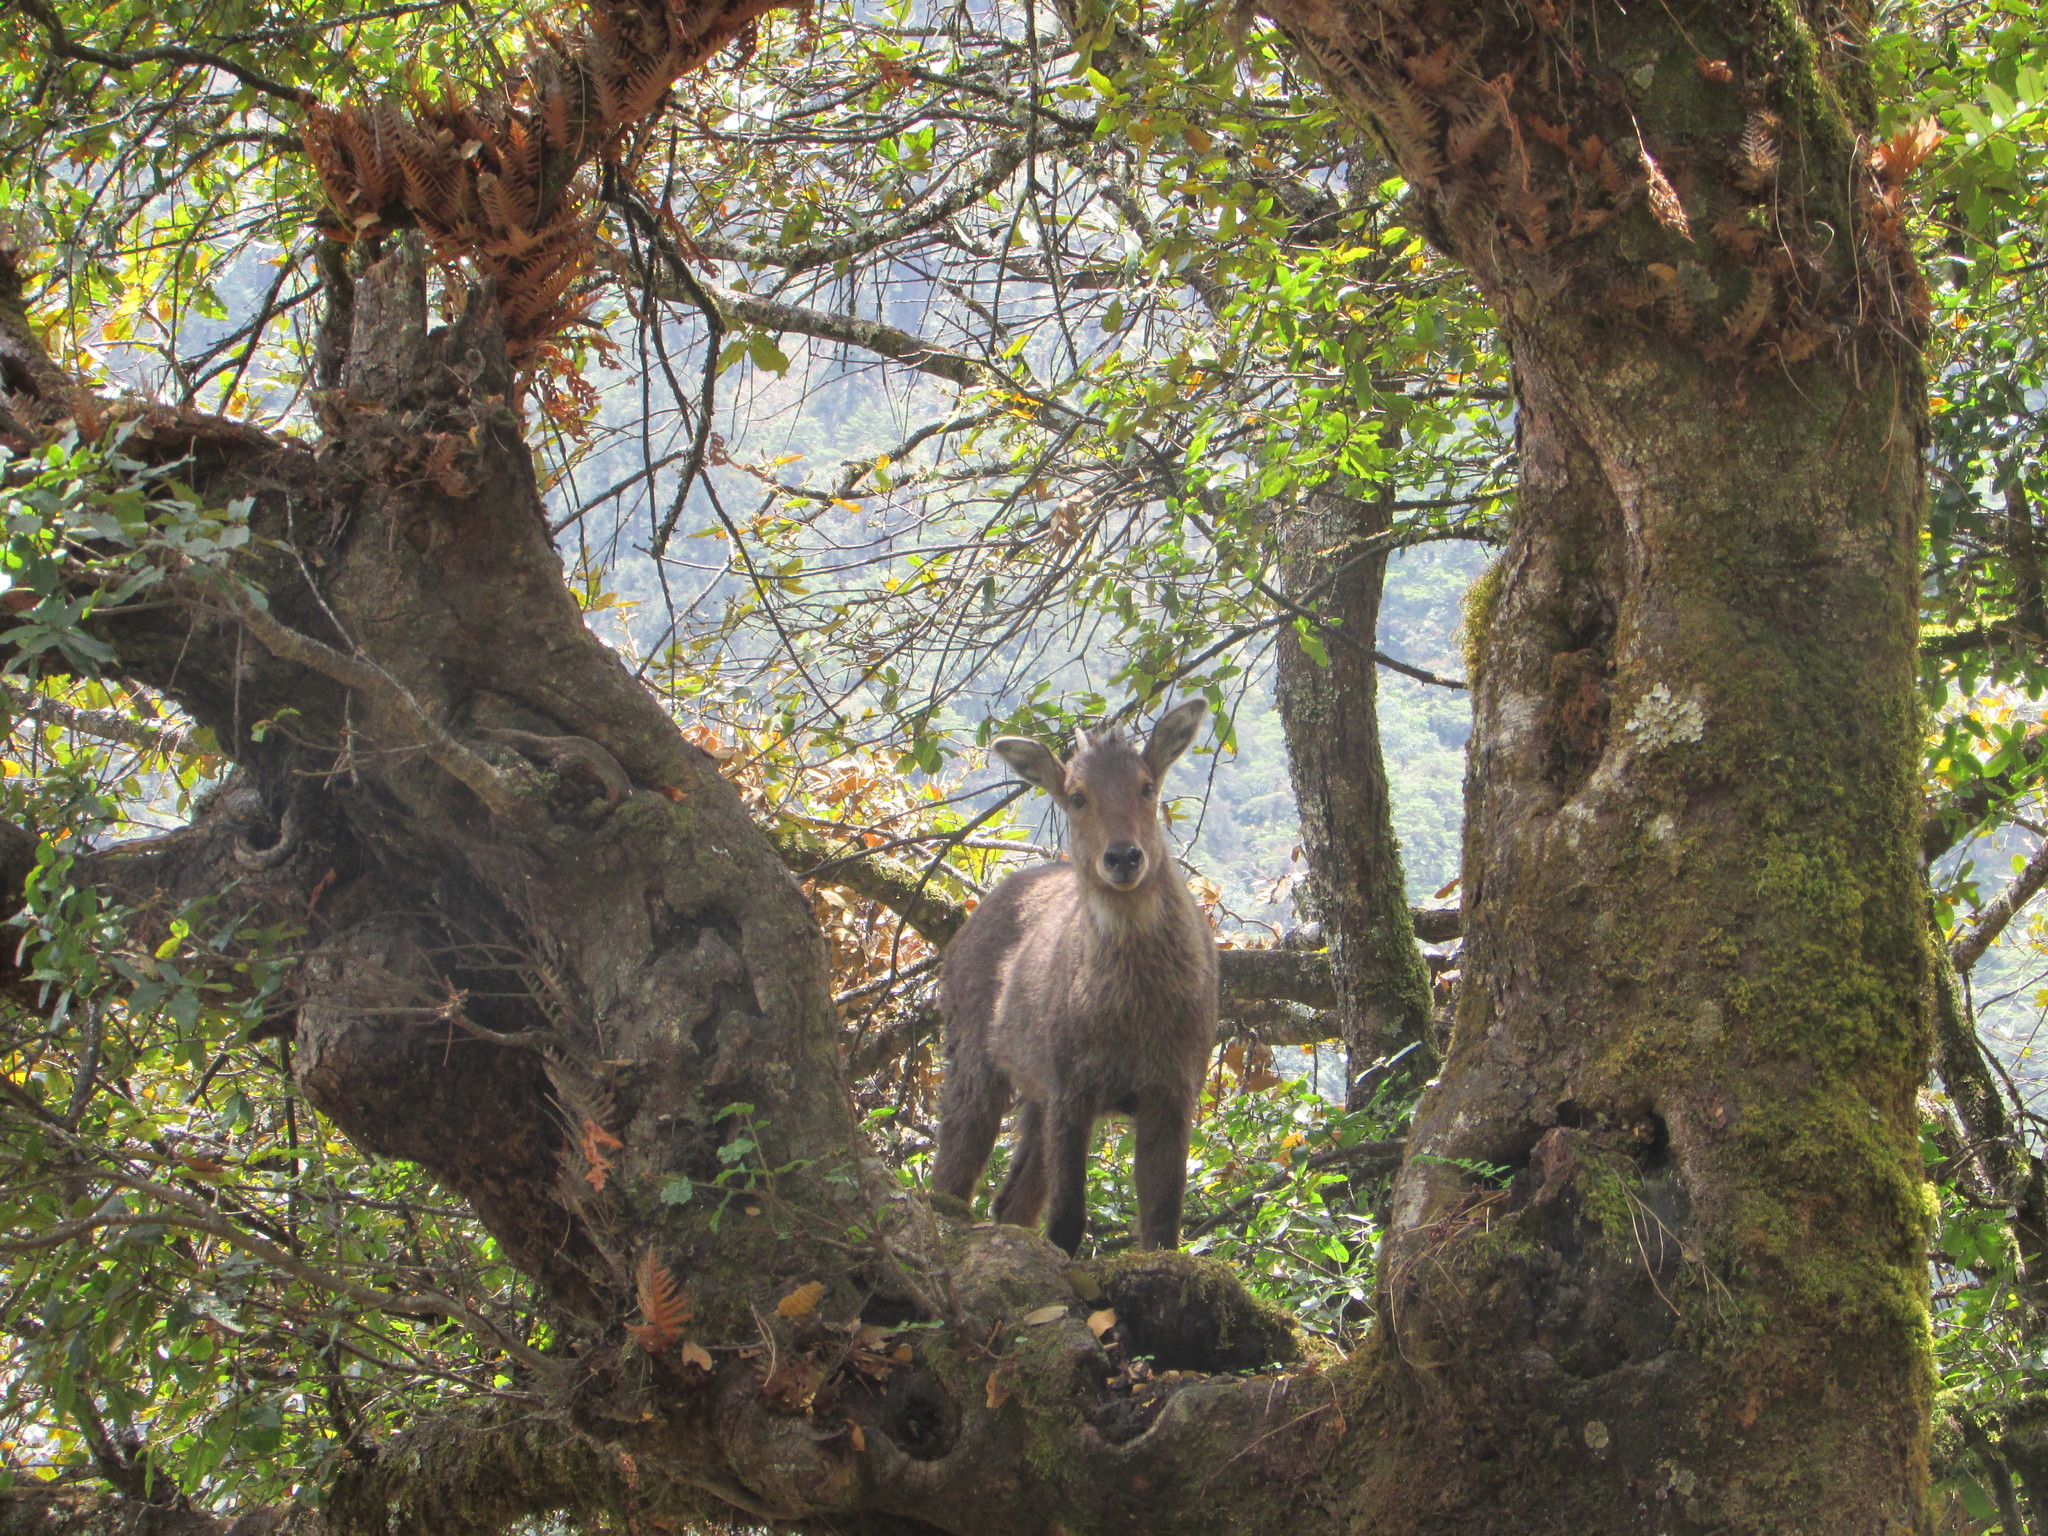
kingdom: Animalia
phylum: Chordata
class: Mammalia
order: Artiodactyla
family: Bovidae
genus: Naemorhedus
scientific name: Naemorhedus goral
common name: Goral
